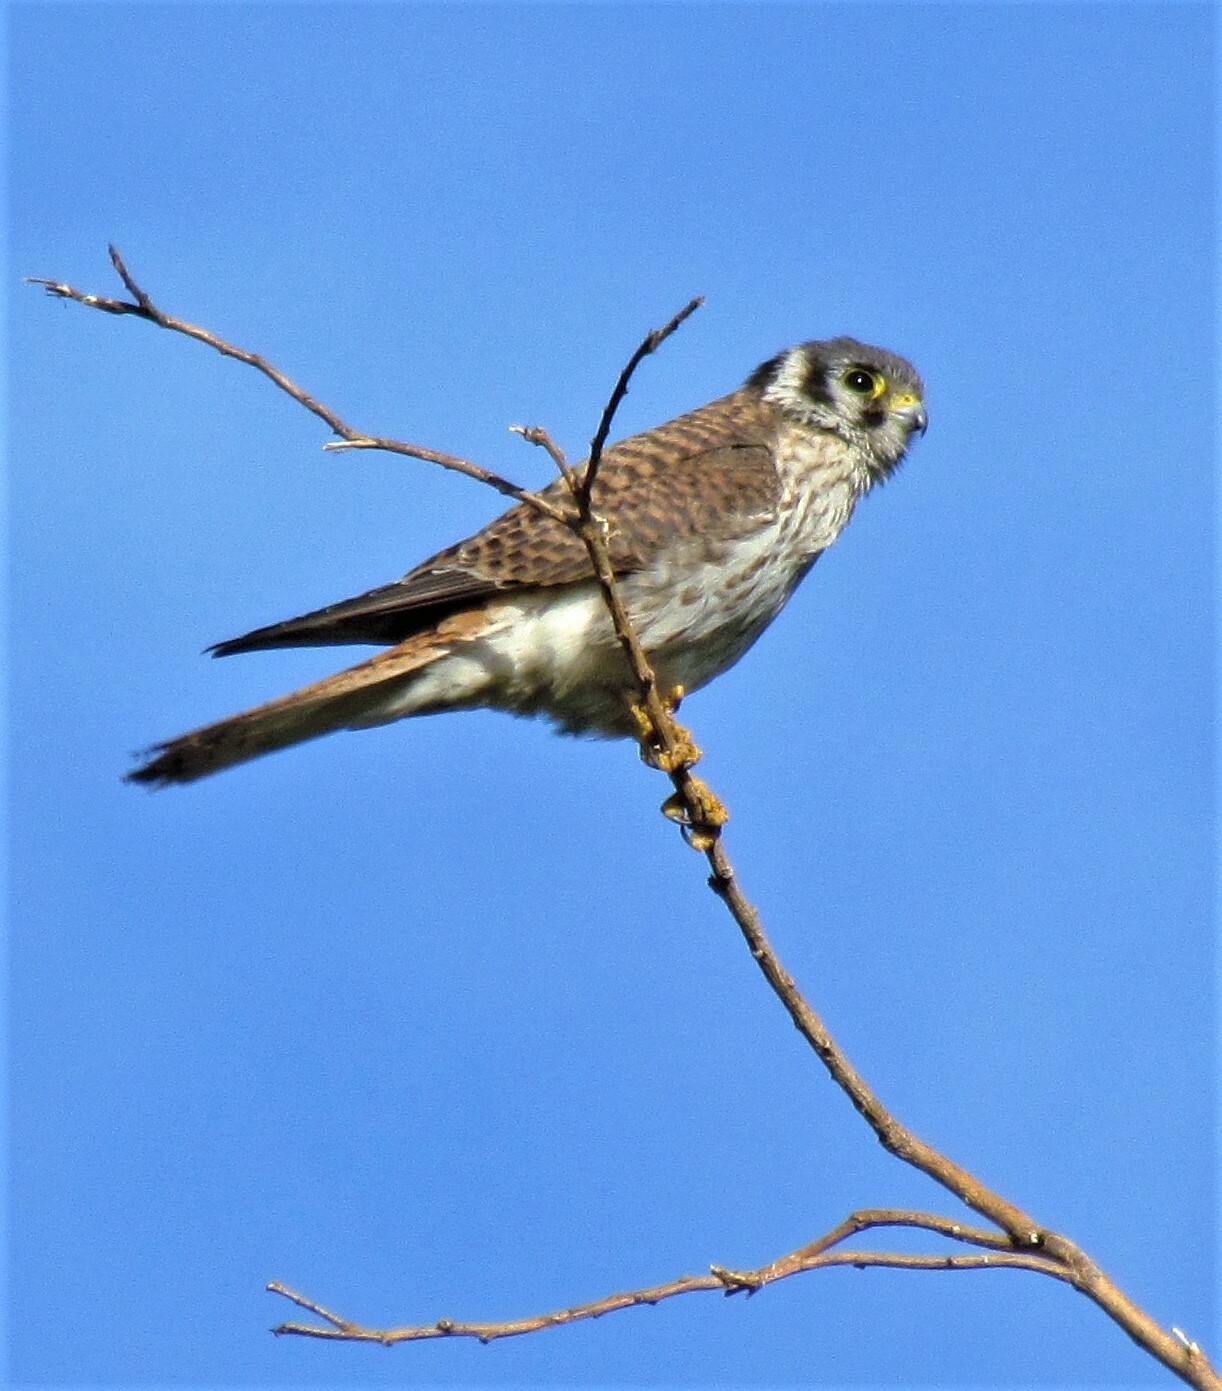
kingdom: Animalia
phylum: Chordata
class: Aves
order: Falconiformes
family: Falconidae
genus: Falco
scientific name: Falco sparverius
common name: American kestrel
